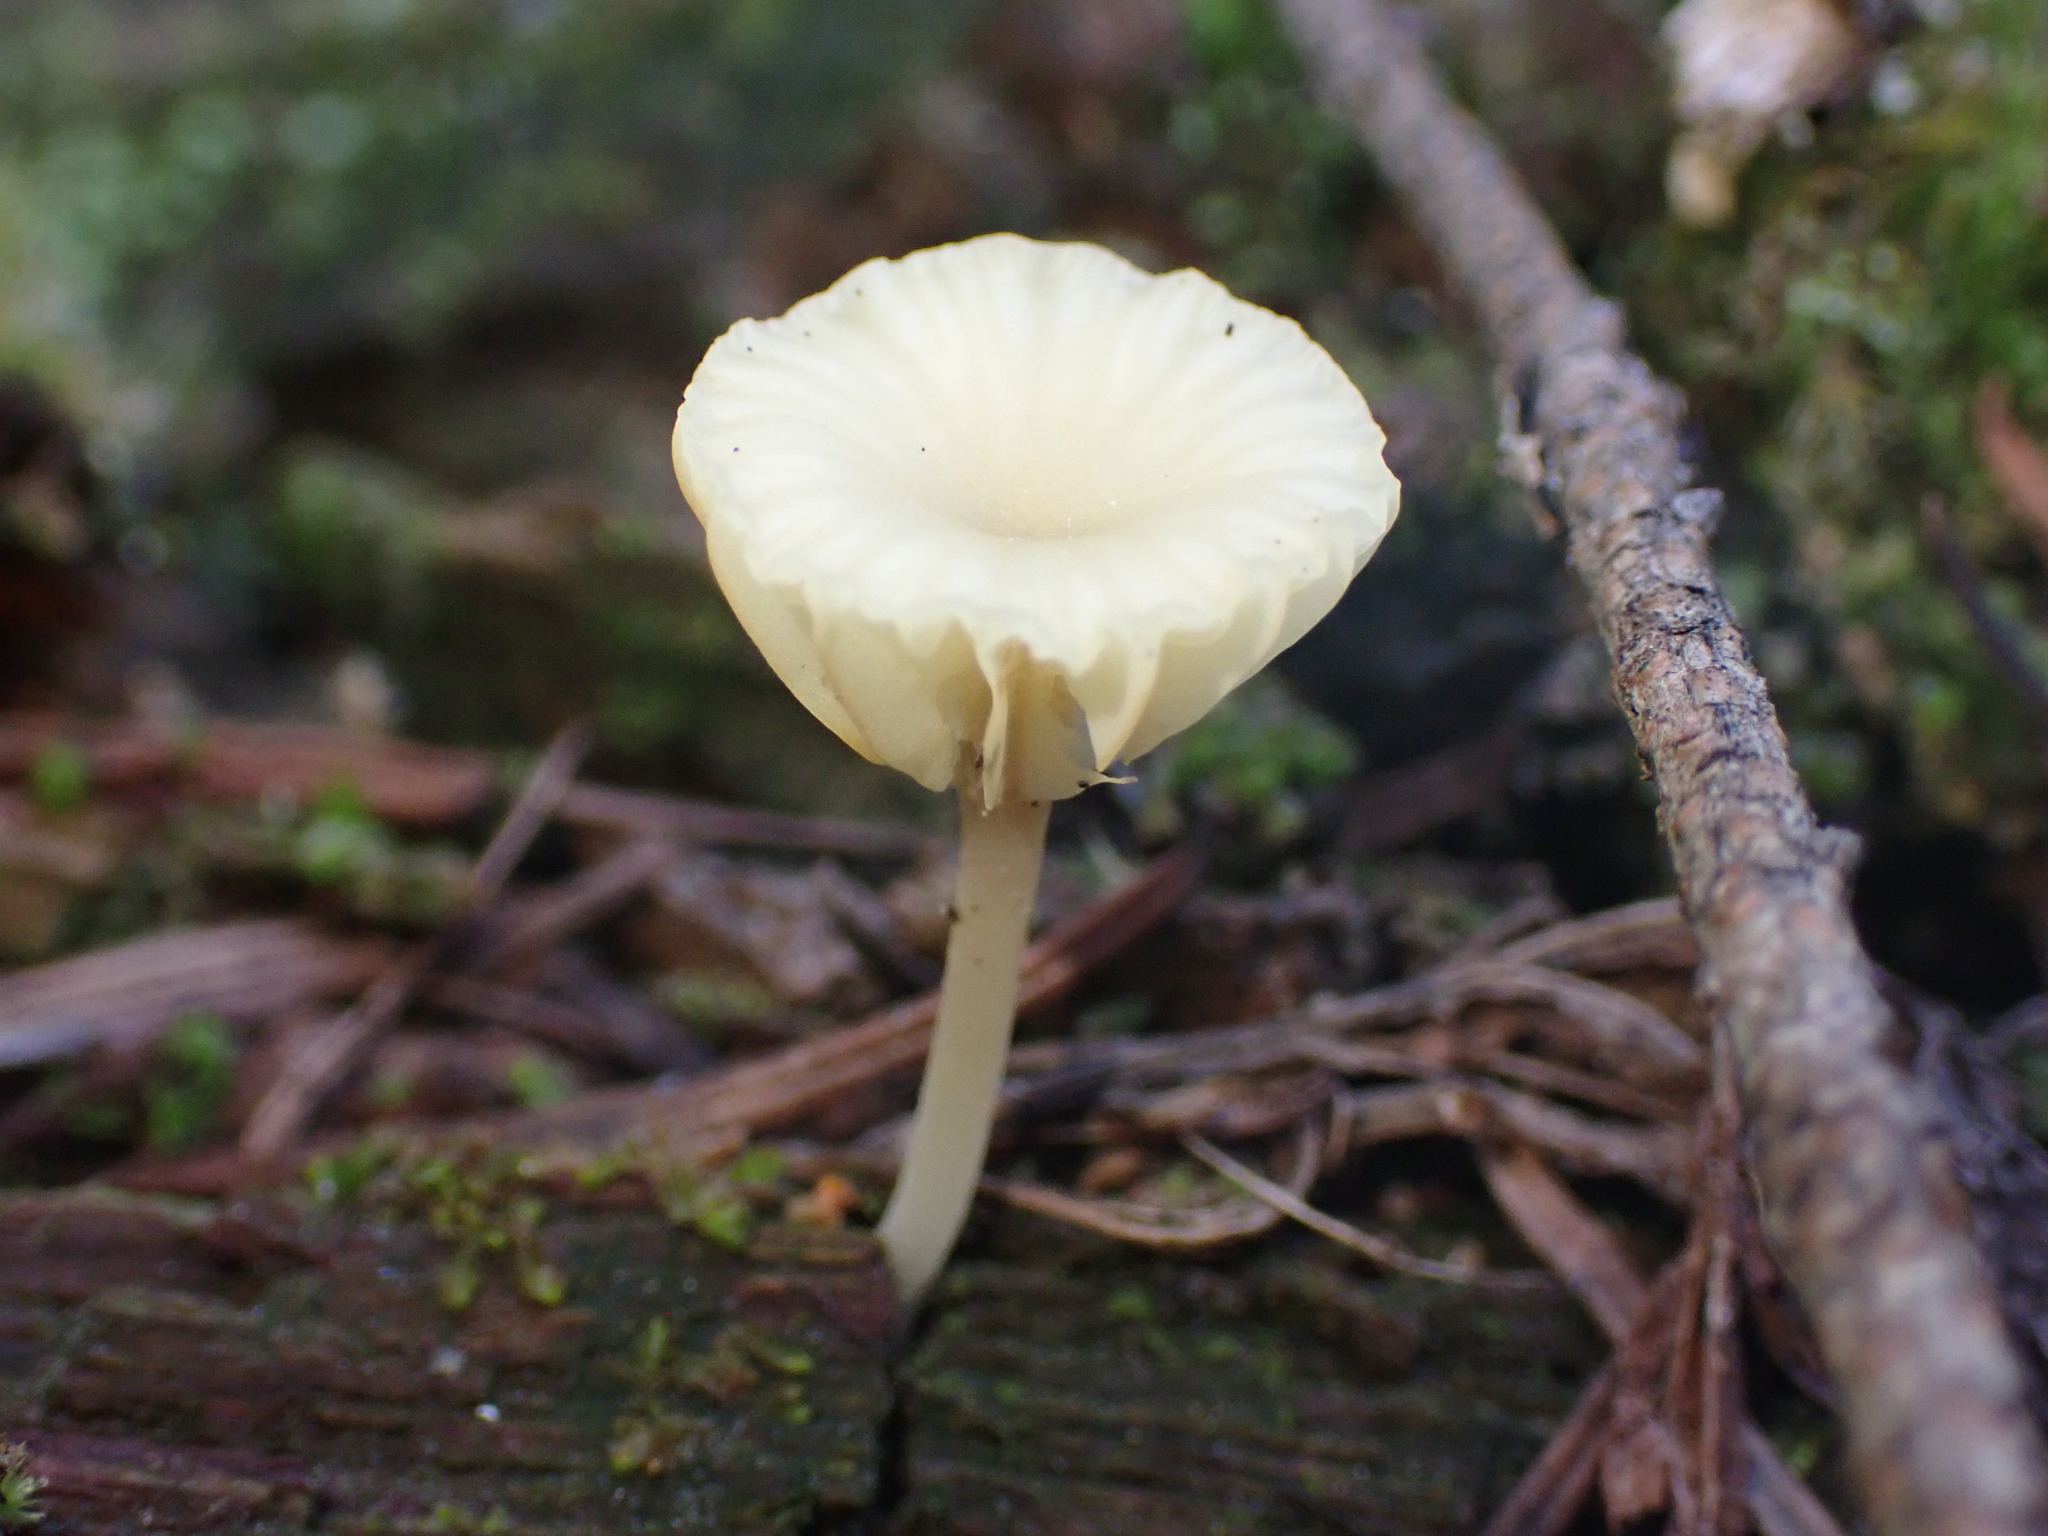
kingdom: Fungi
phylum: Basidiomycota
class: Agaricomycetes
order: Agaricales
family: Hygrophoraceae
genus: Lichenomphalia
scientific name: Lichenomphalia
